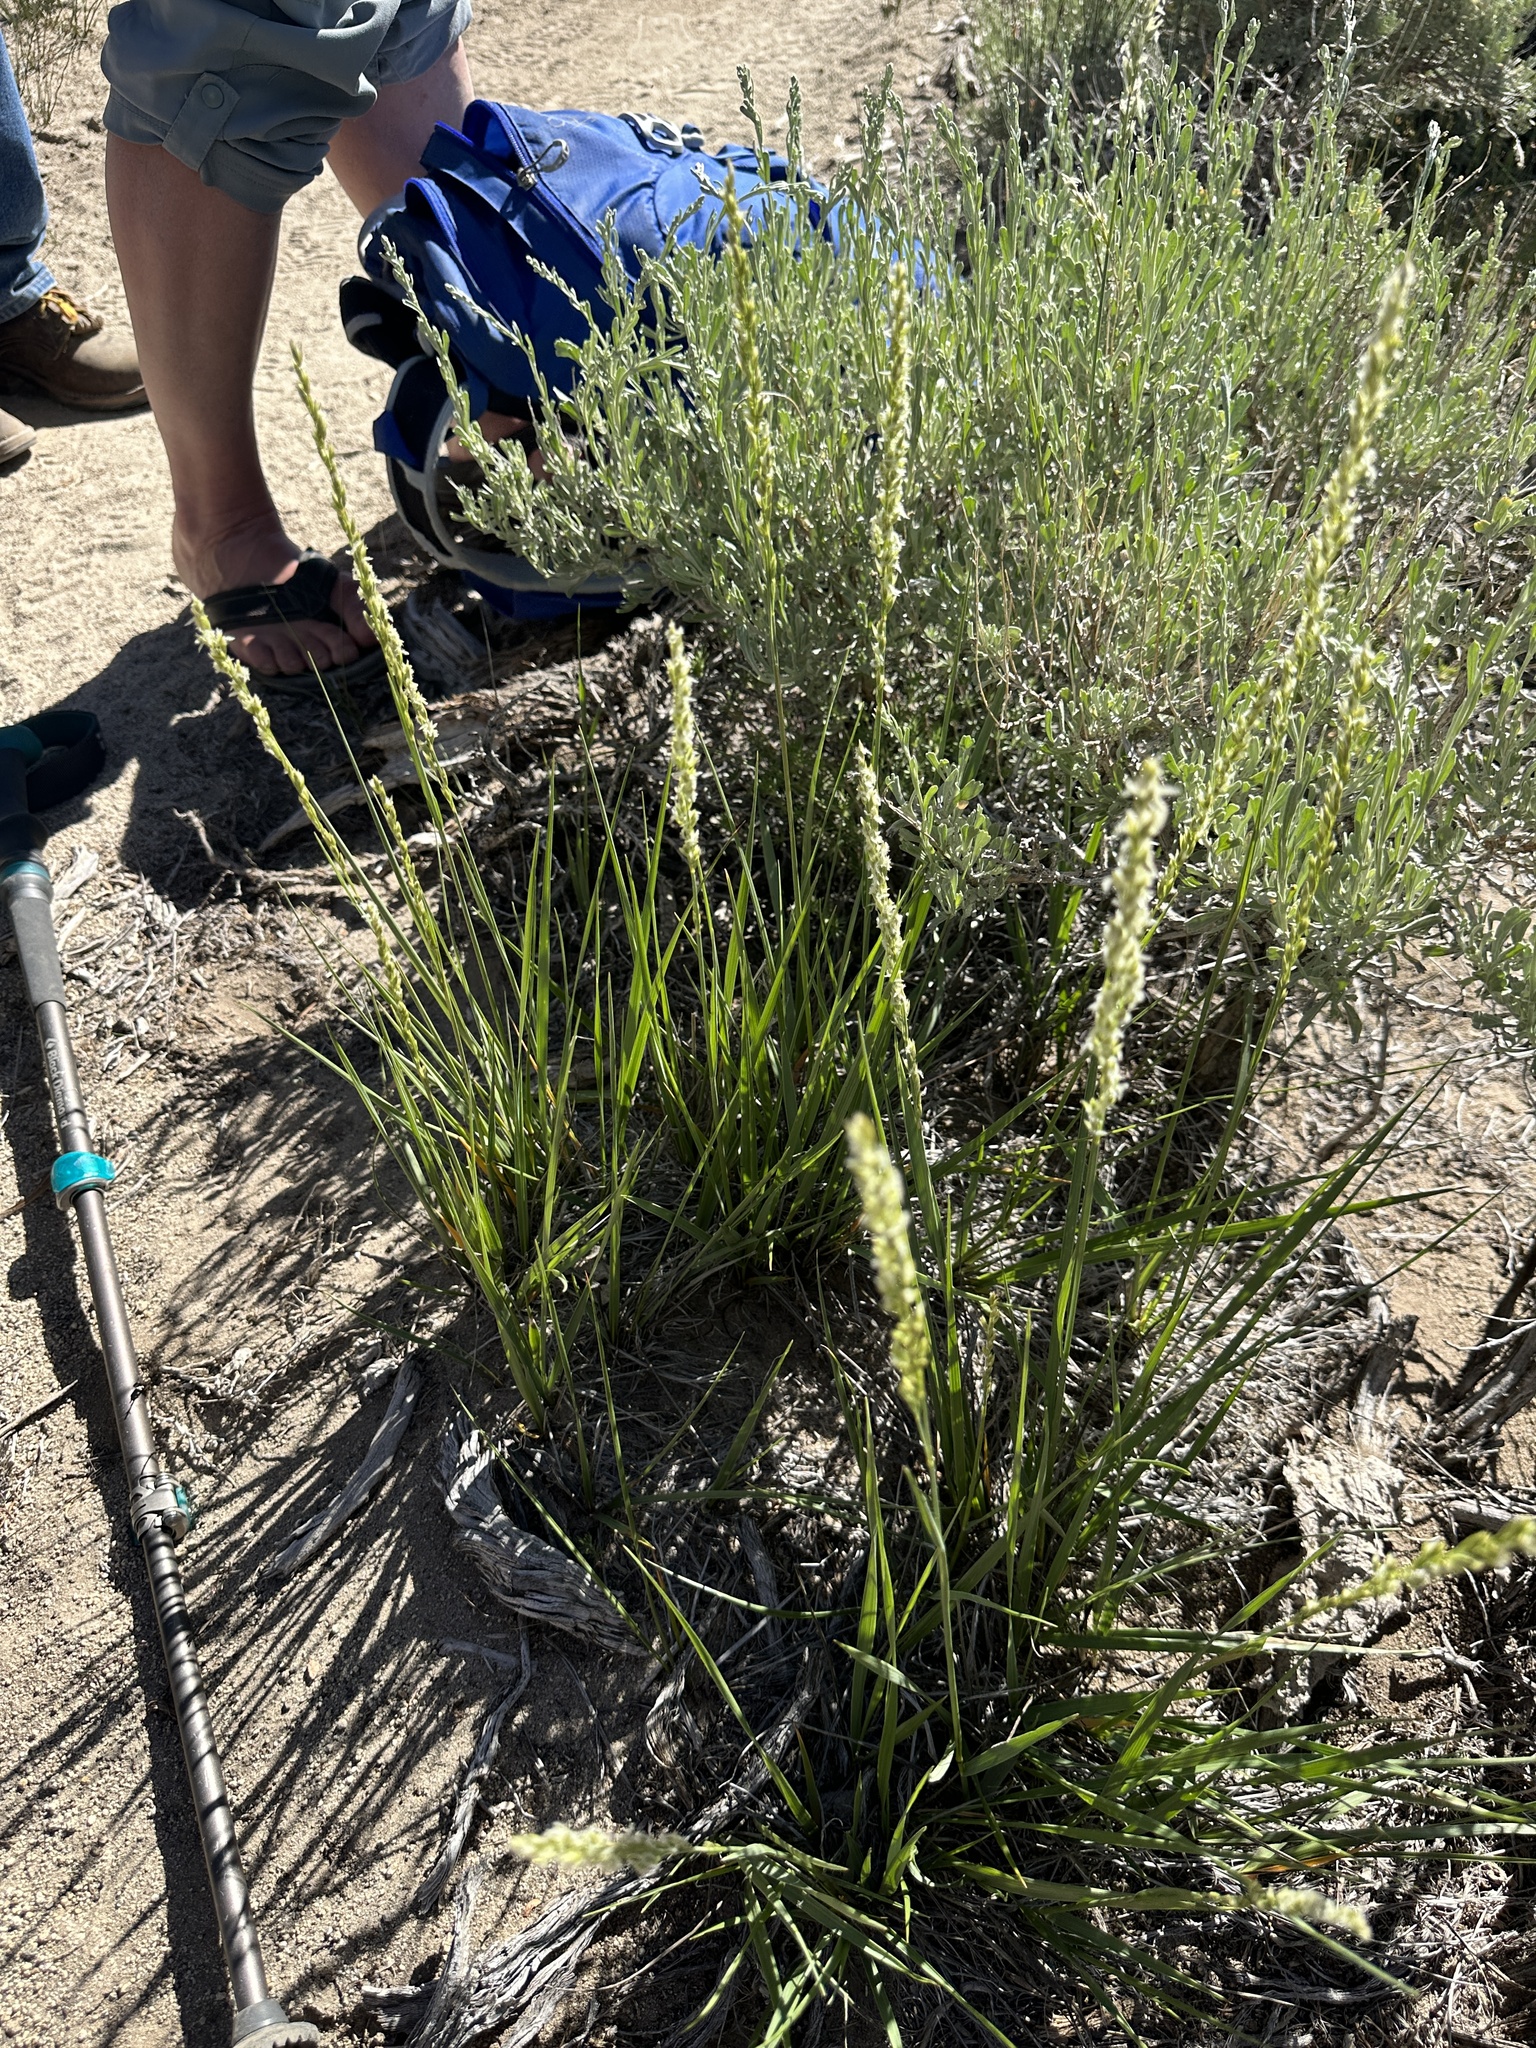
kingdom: Plantae
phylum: Tracheophyta
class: Liliopsida
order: Poales
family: Poaceae
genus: Festuca
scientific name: Festuca kingii
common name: Spike fescue
